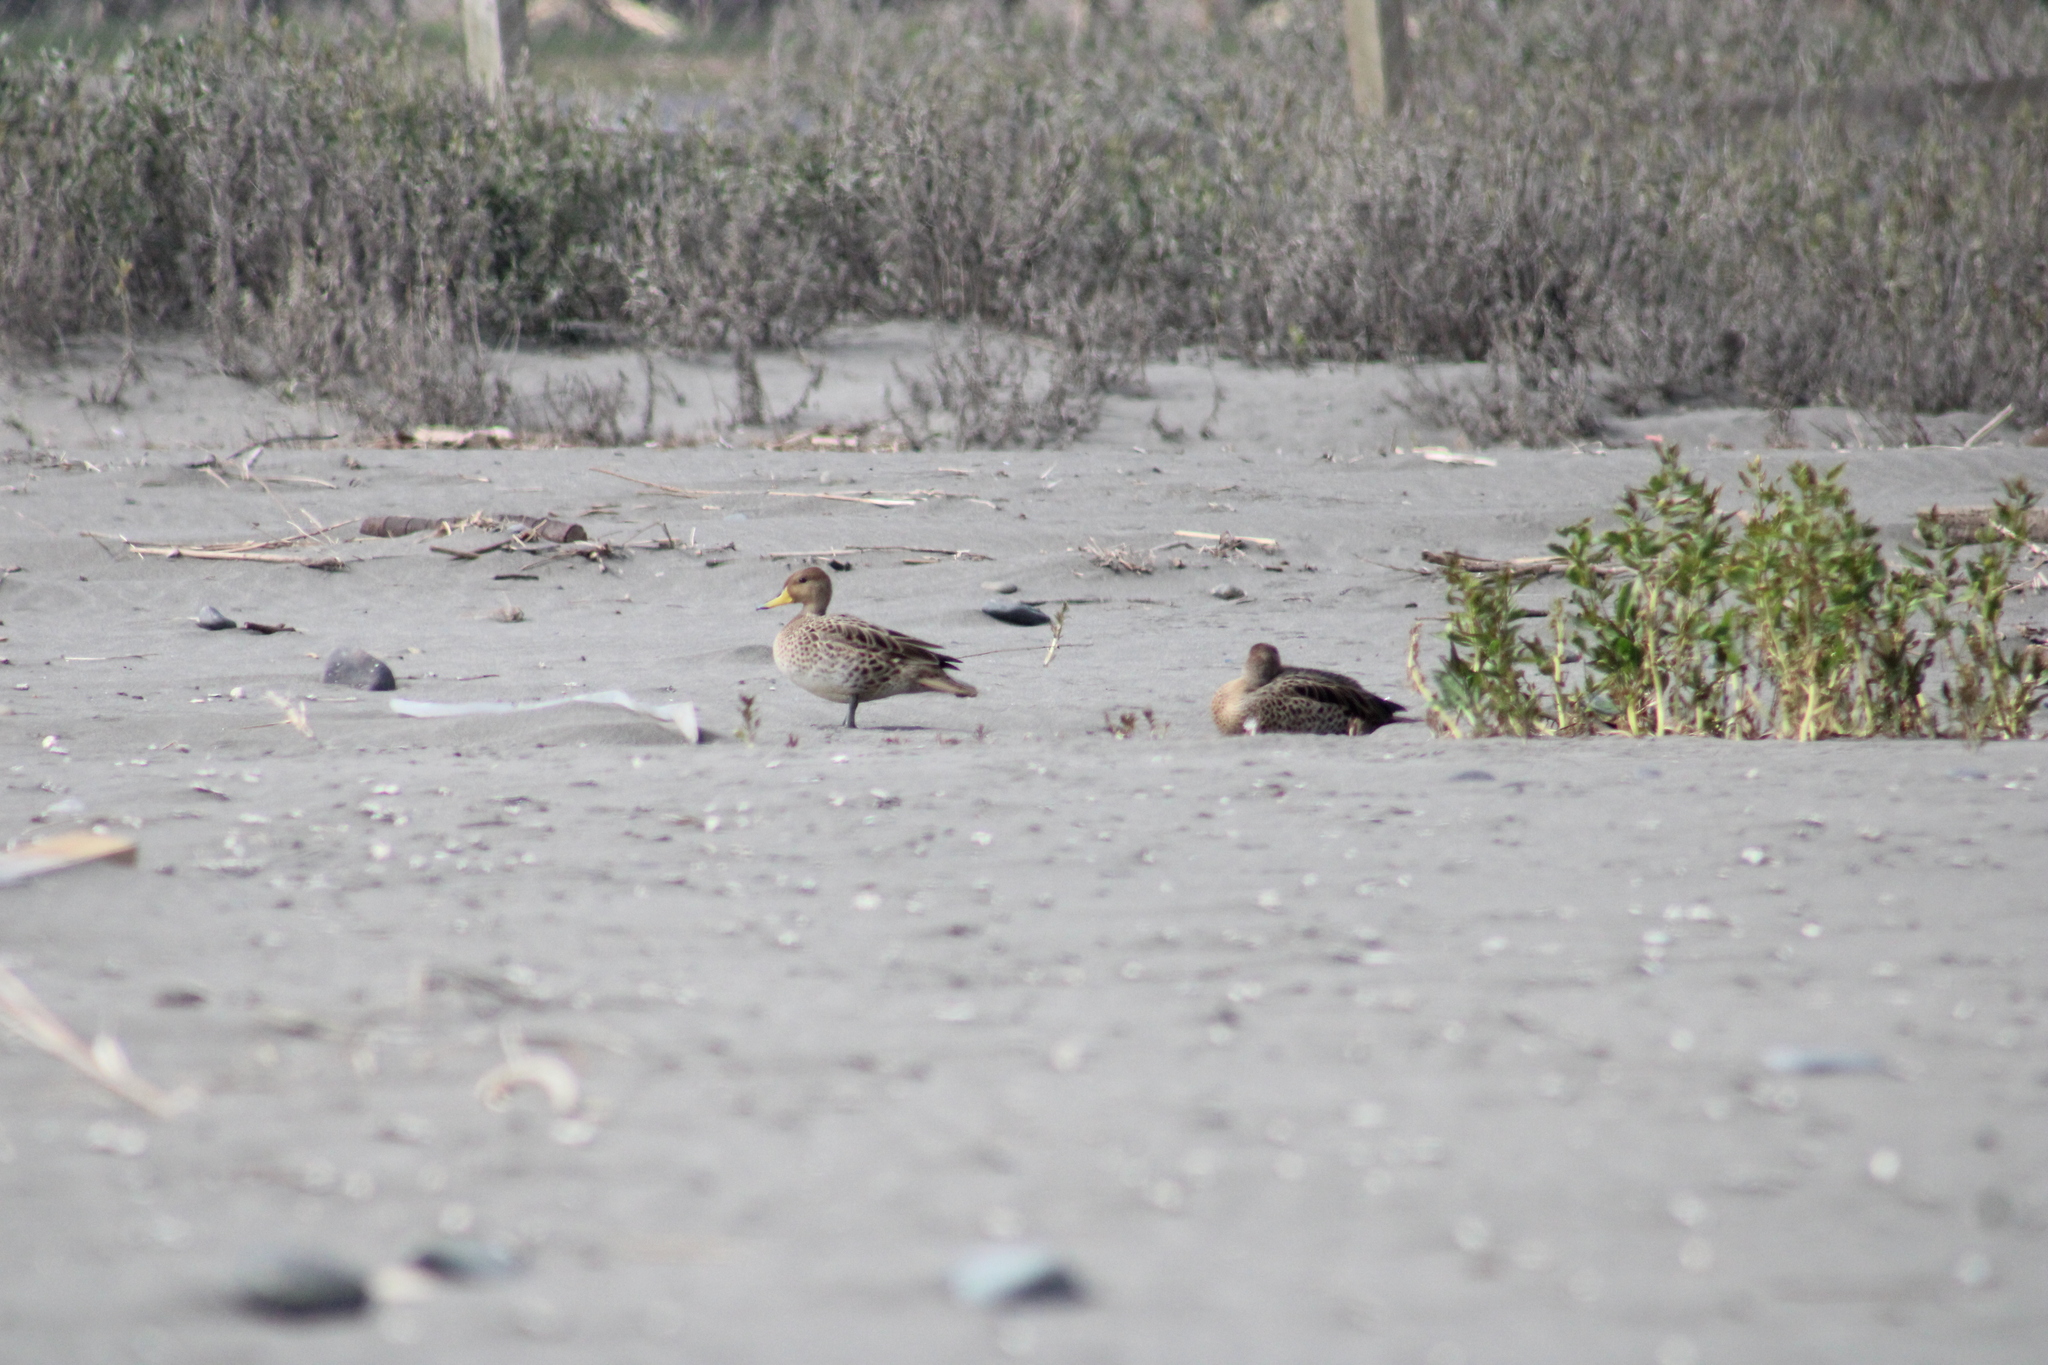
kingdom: Animalia
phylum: Chordata
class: Aves
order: Anseriformes
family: Anatidae
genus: Anas
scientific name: Anas georgica
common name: Yellow-billed pintail
